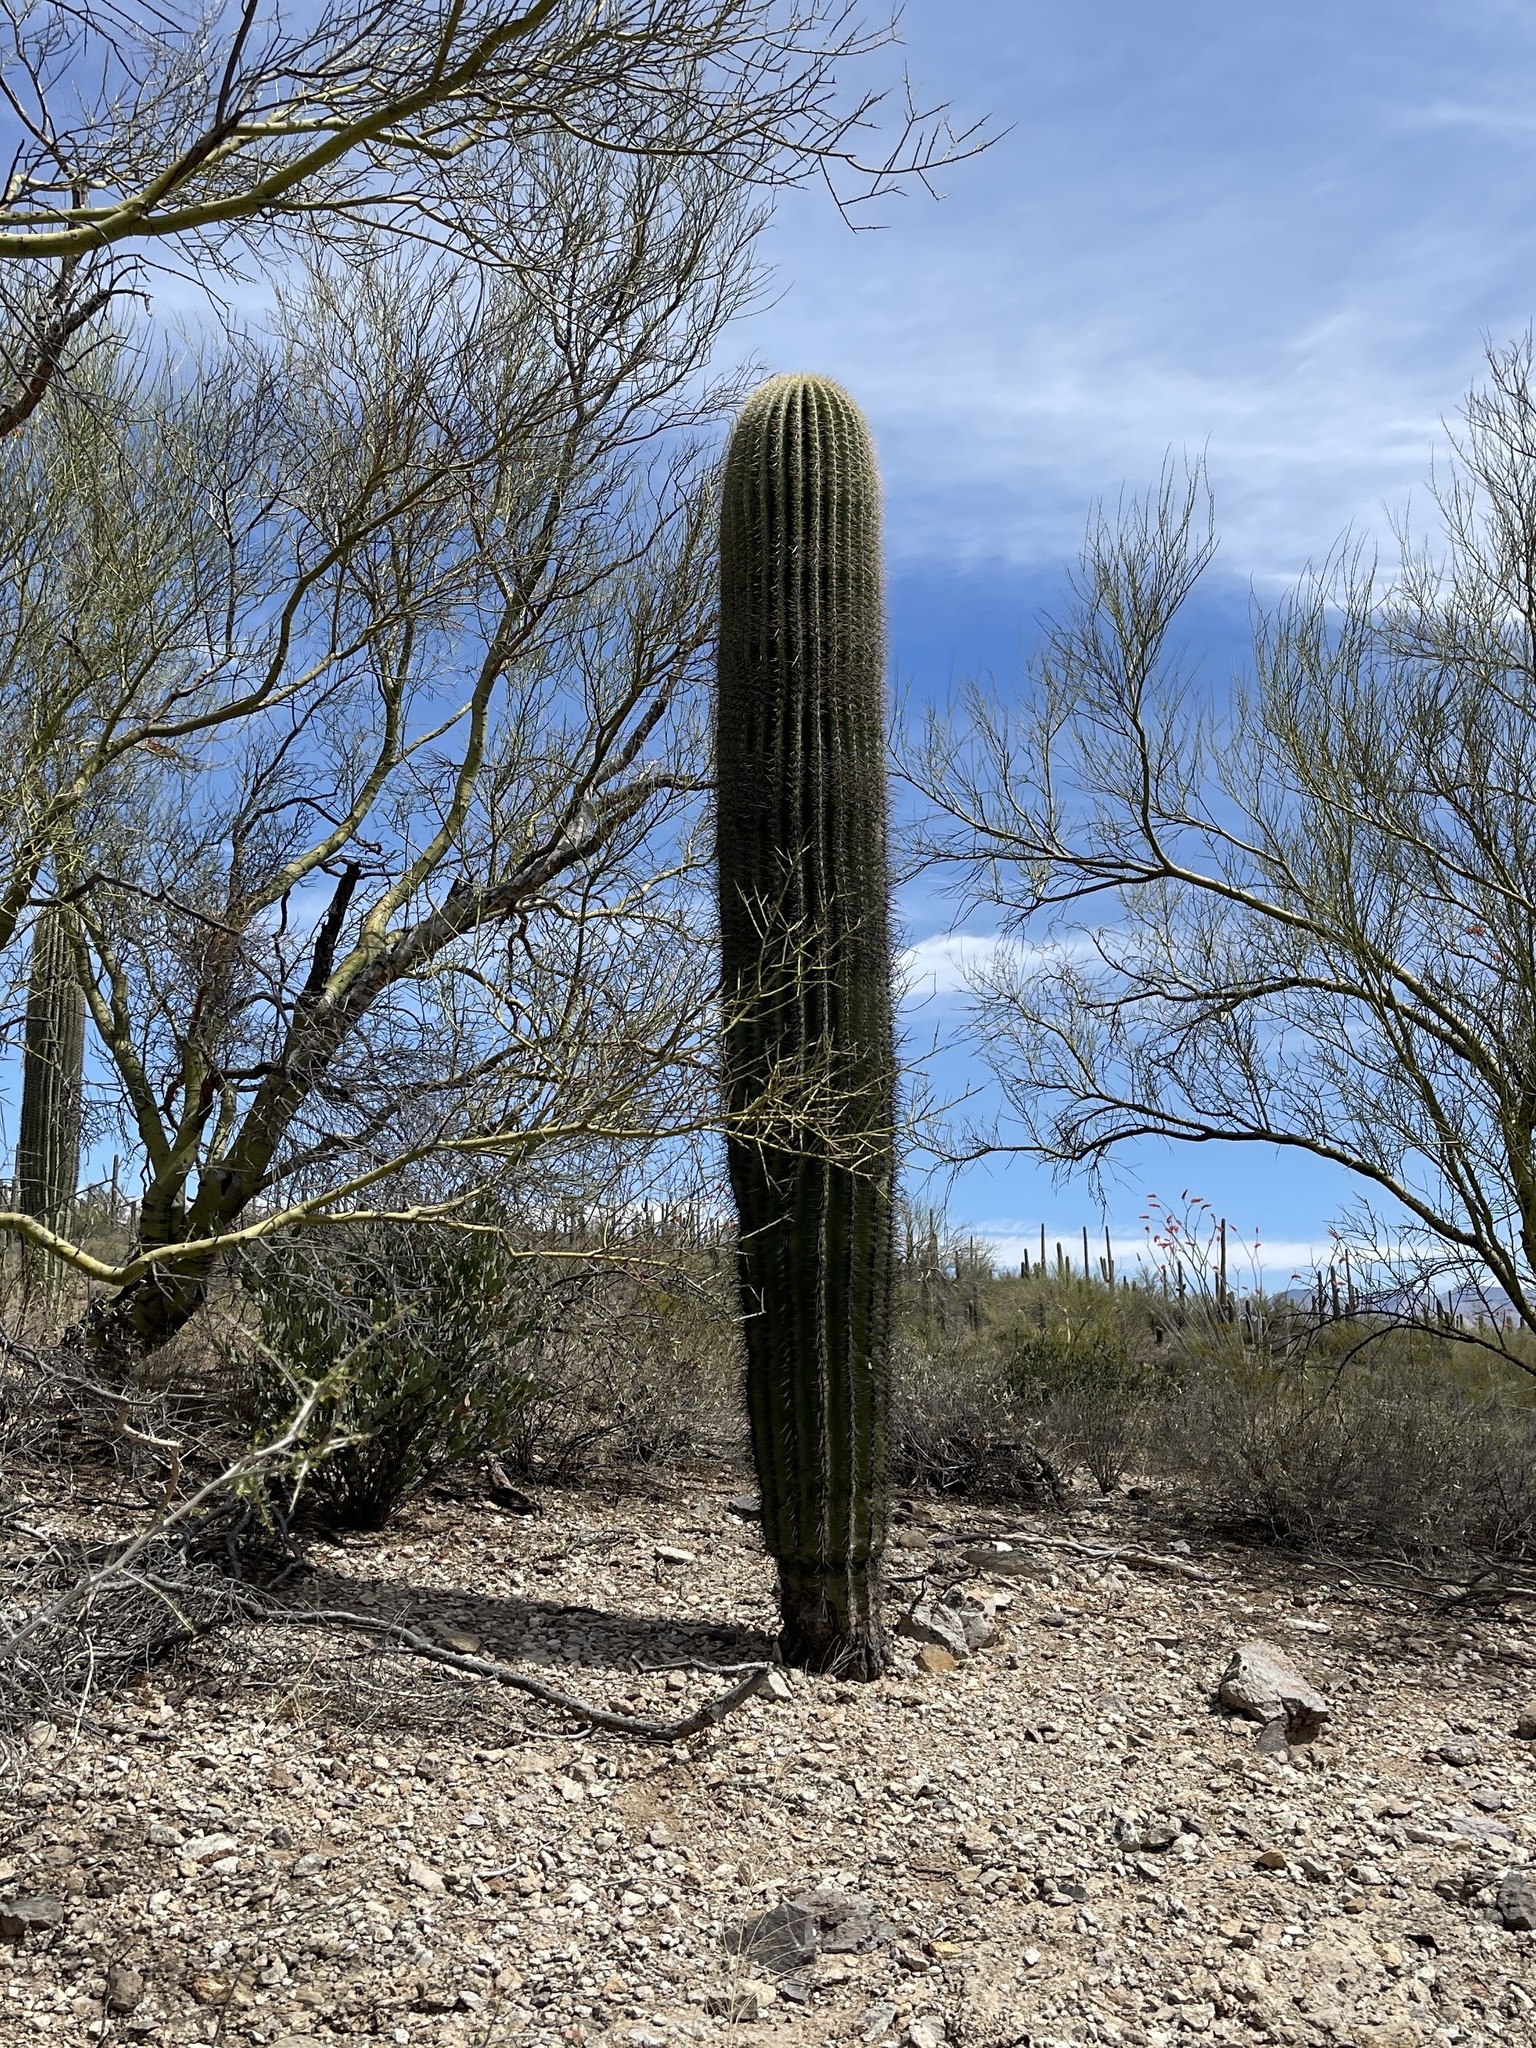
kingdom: Plantae
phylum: Tracheophyta
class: Magnoliopsida
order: Caryophyllales
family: Cactaceae
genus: Carnegiea
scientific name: Carnegiea gigantea
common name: Saguaro
